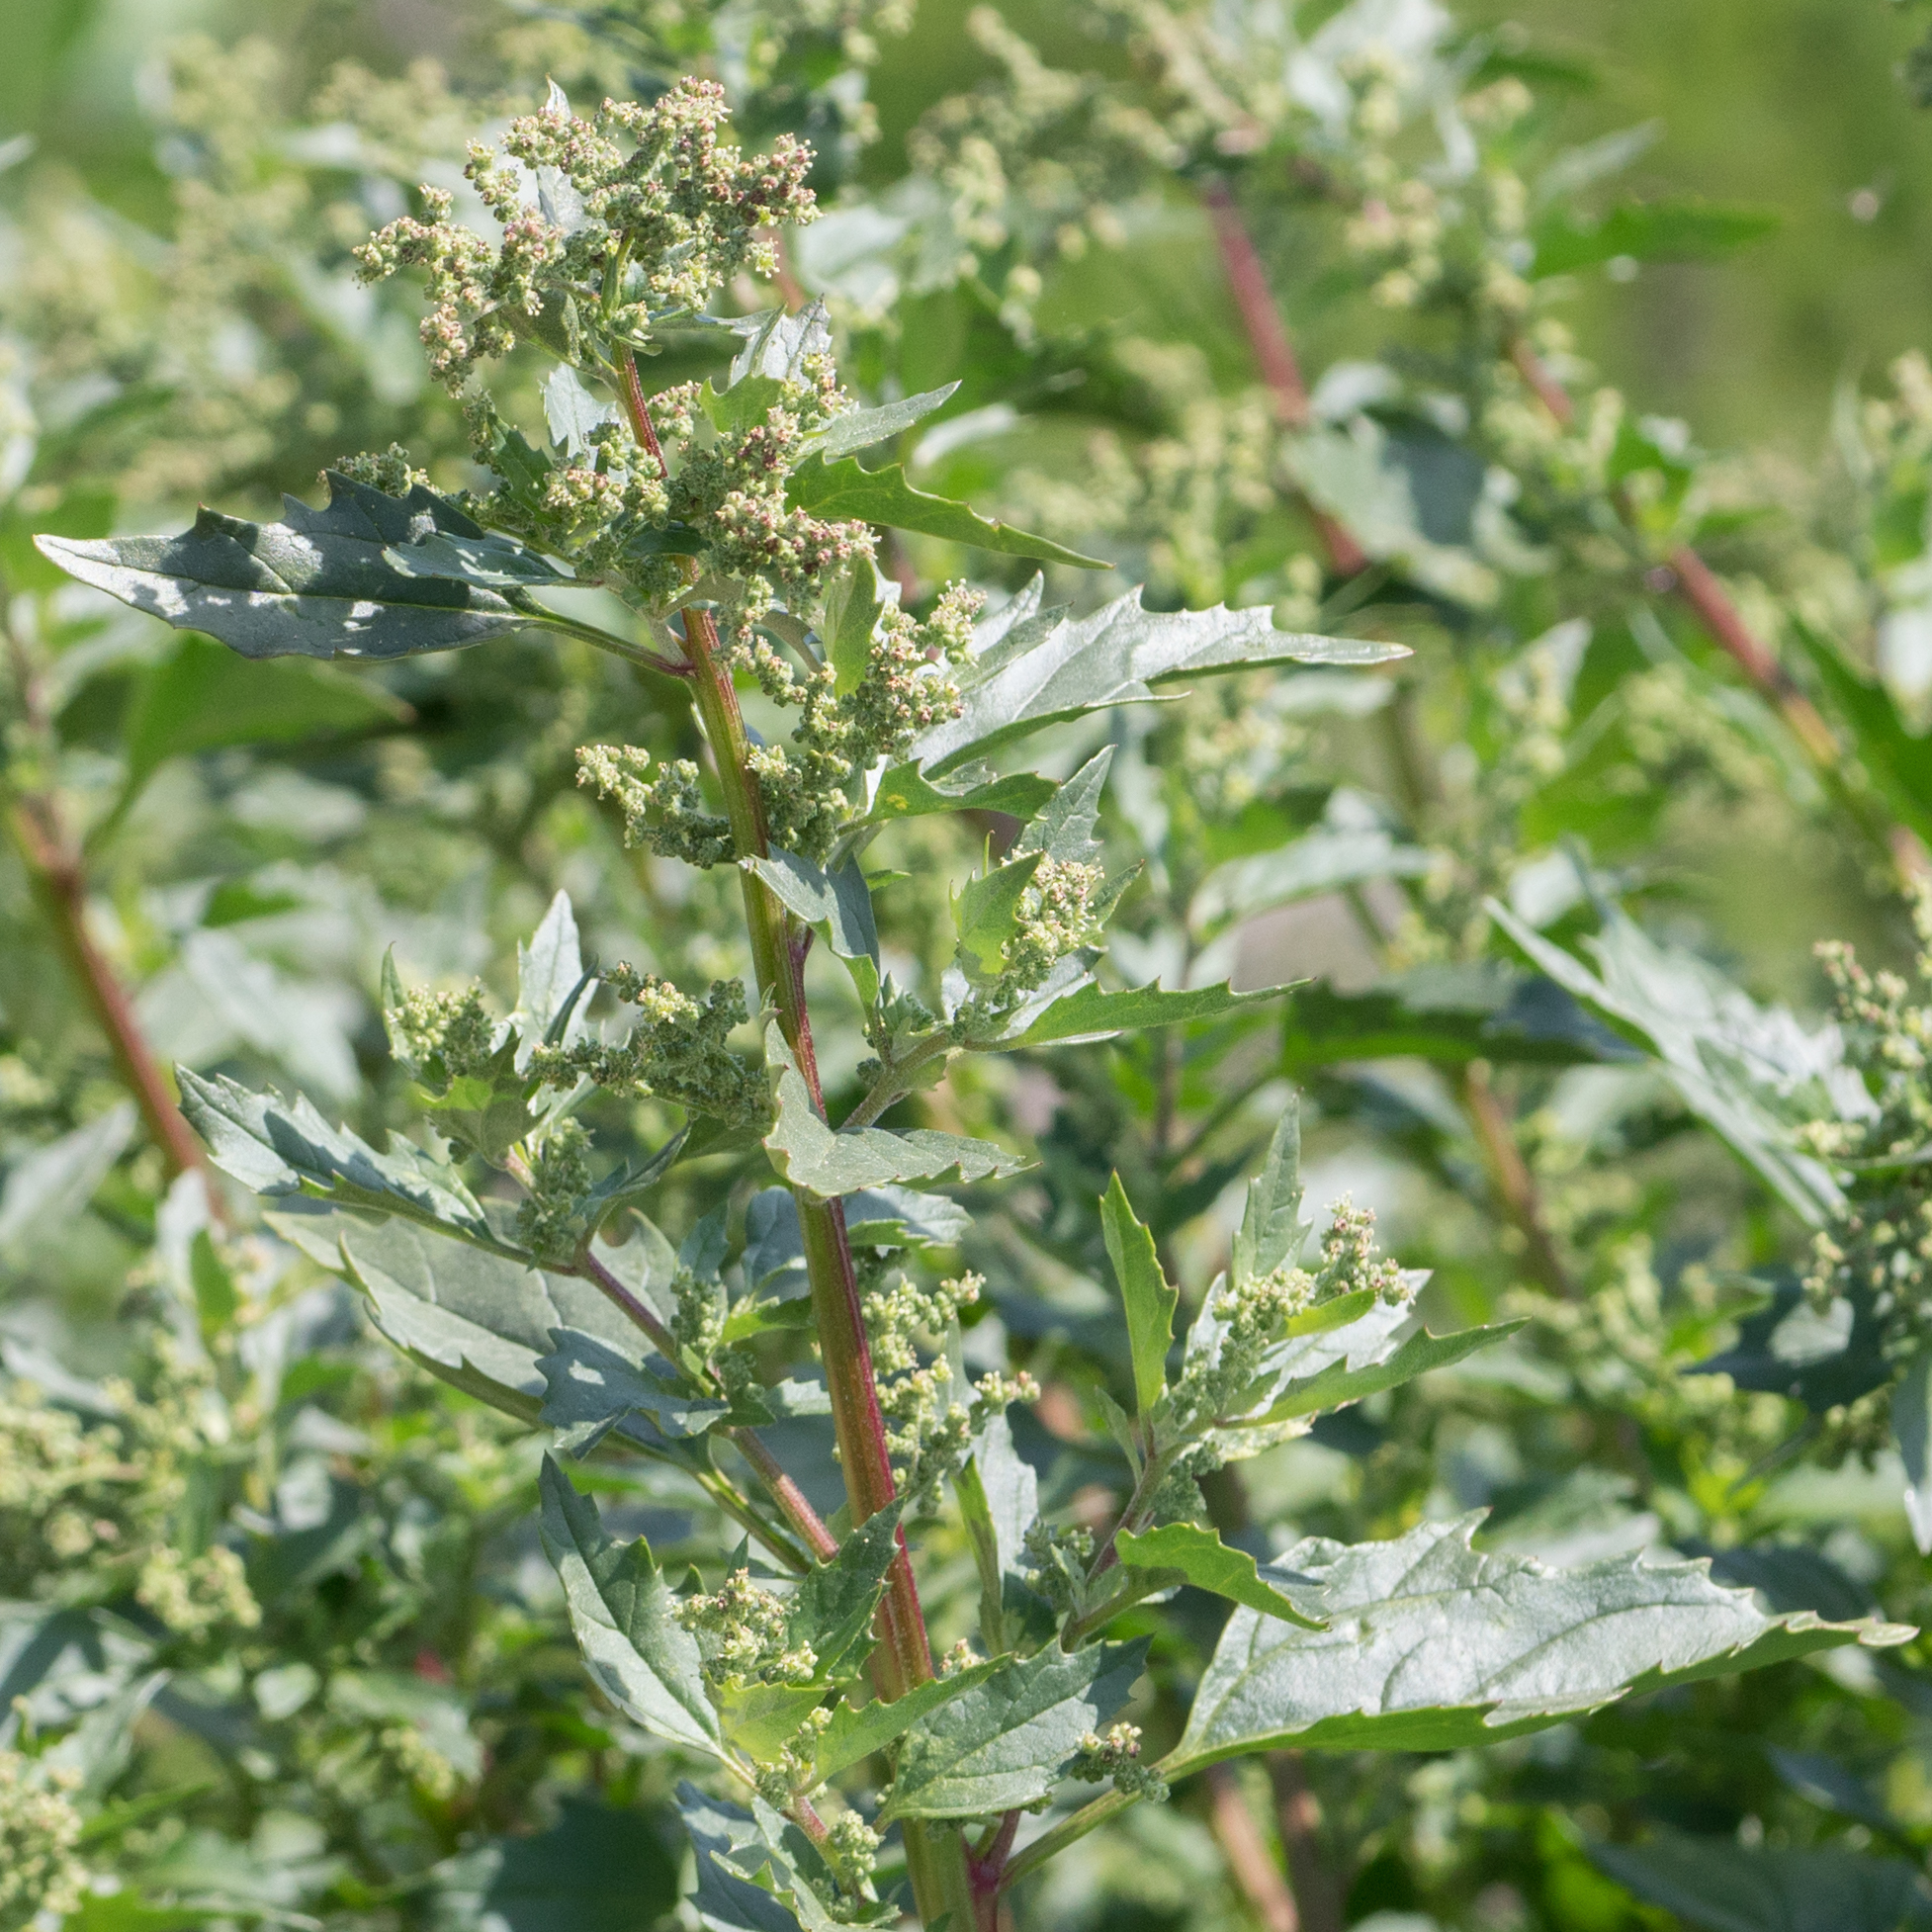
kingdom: Plantae
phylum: Tracheophyta
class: Magnoliopsida
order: Caryophyllales
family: Amaranthaceae
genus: Chenopodiastrum
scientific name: Chenopodiastrum murale
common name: Sowbane
